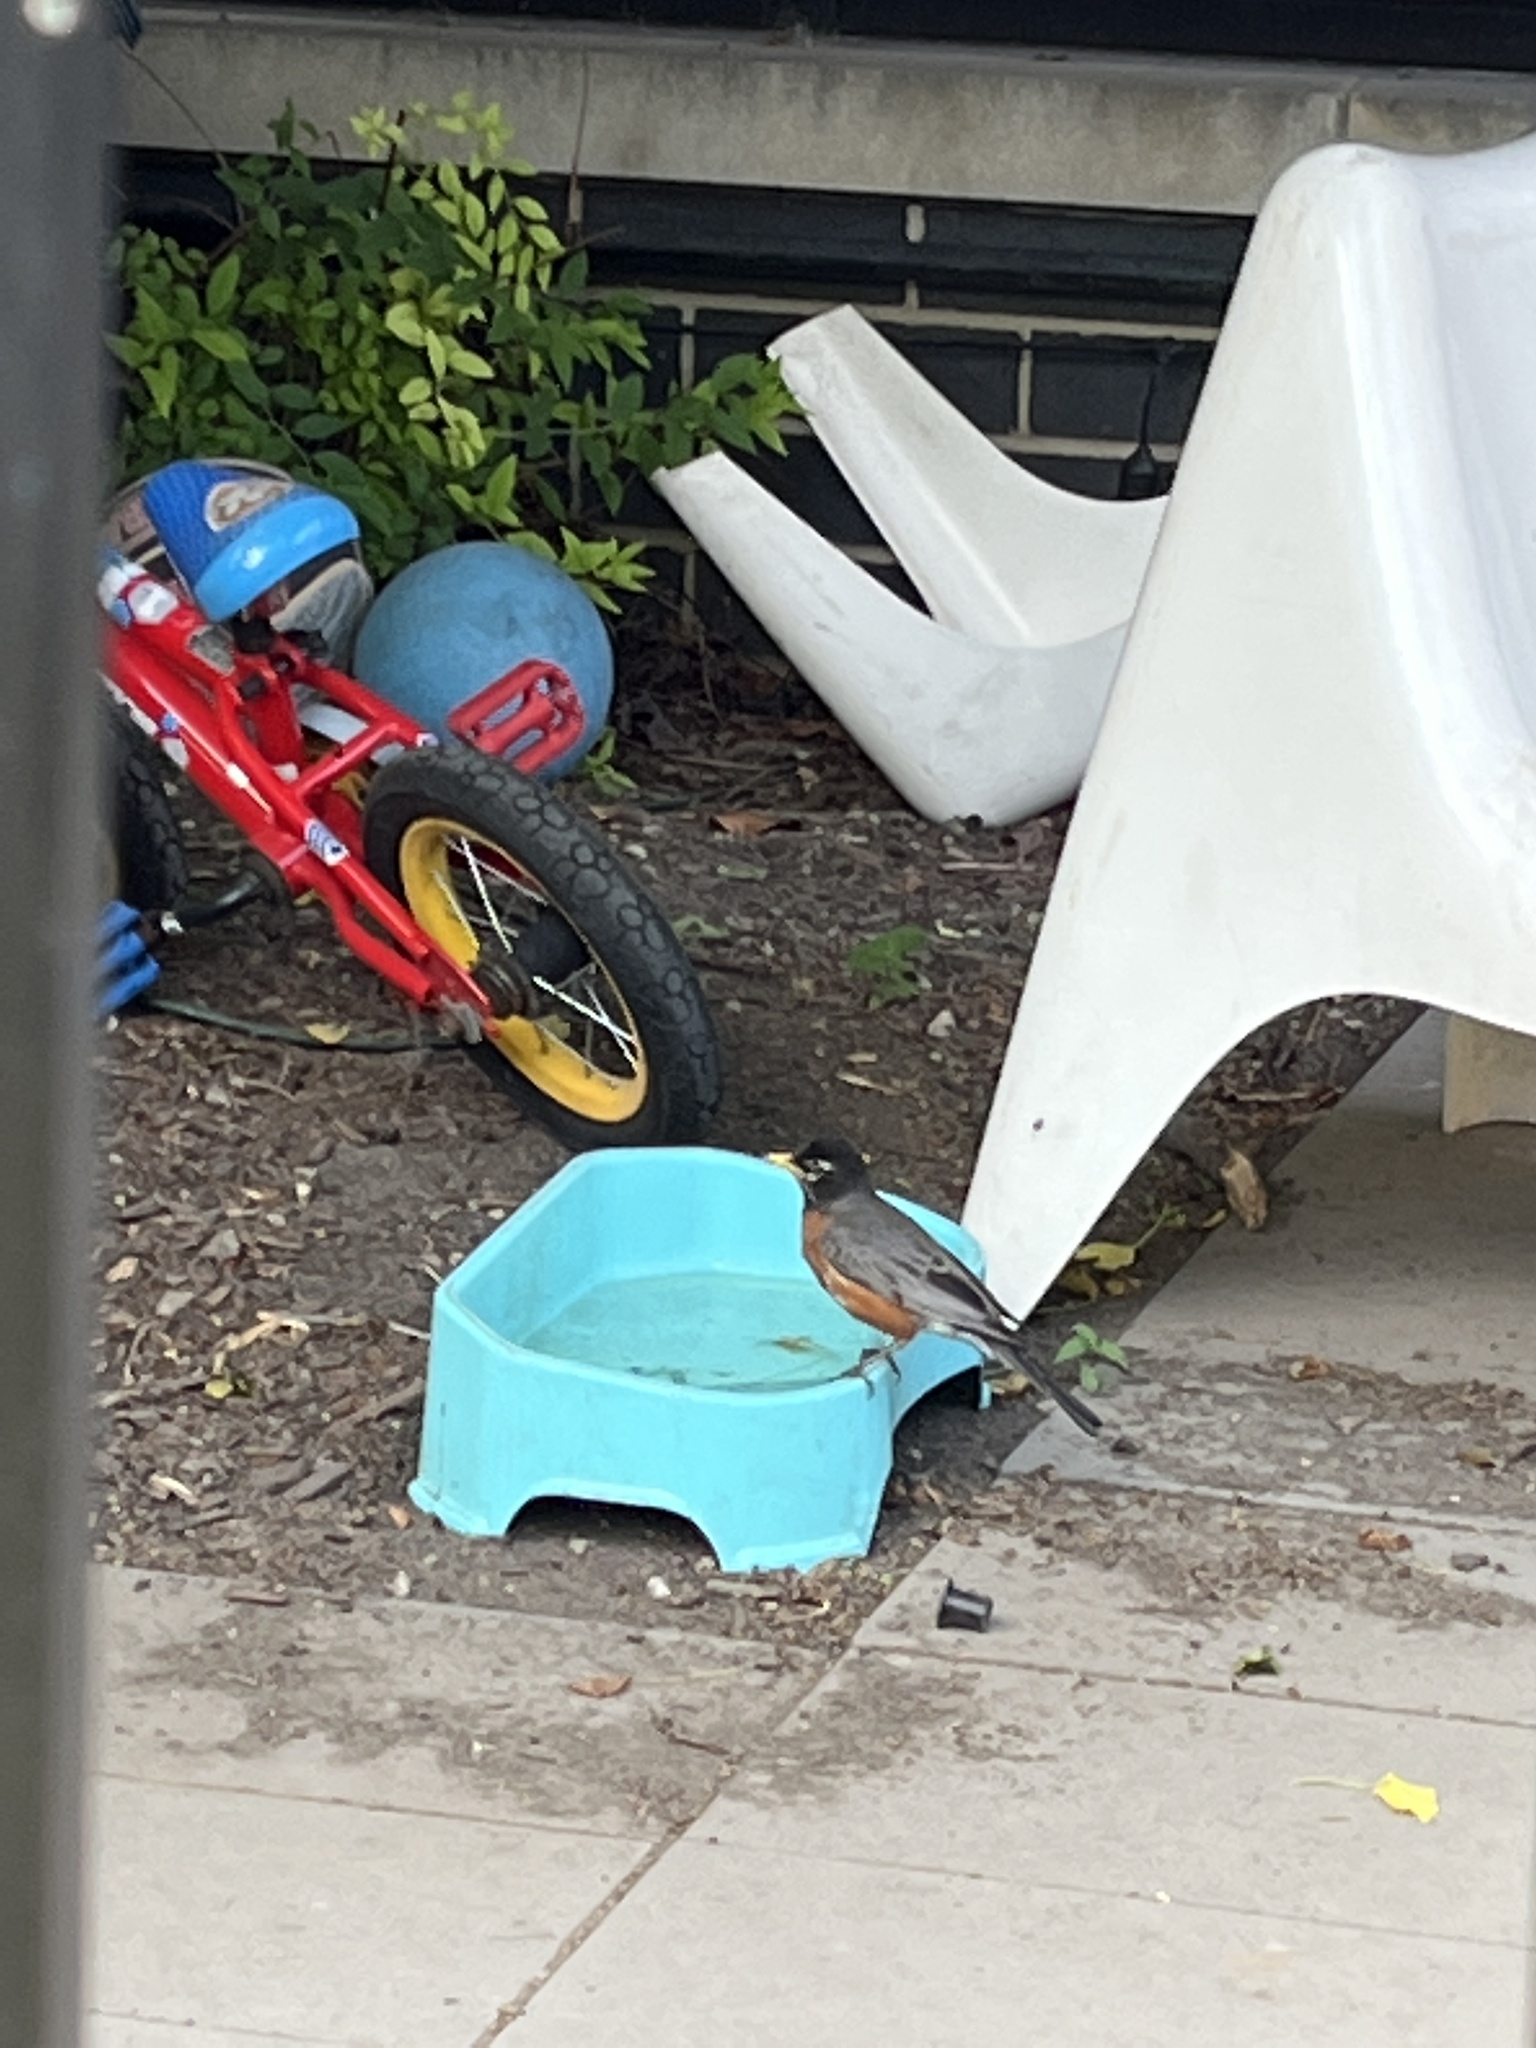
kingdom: Animalia
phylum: Chordata
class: Aves
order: Passeriformes
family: Turdidae
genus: Turdus
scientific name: Turdus migratorius
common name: American robin
